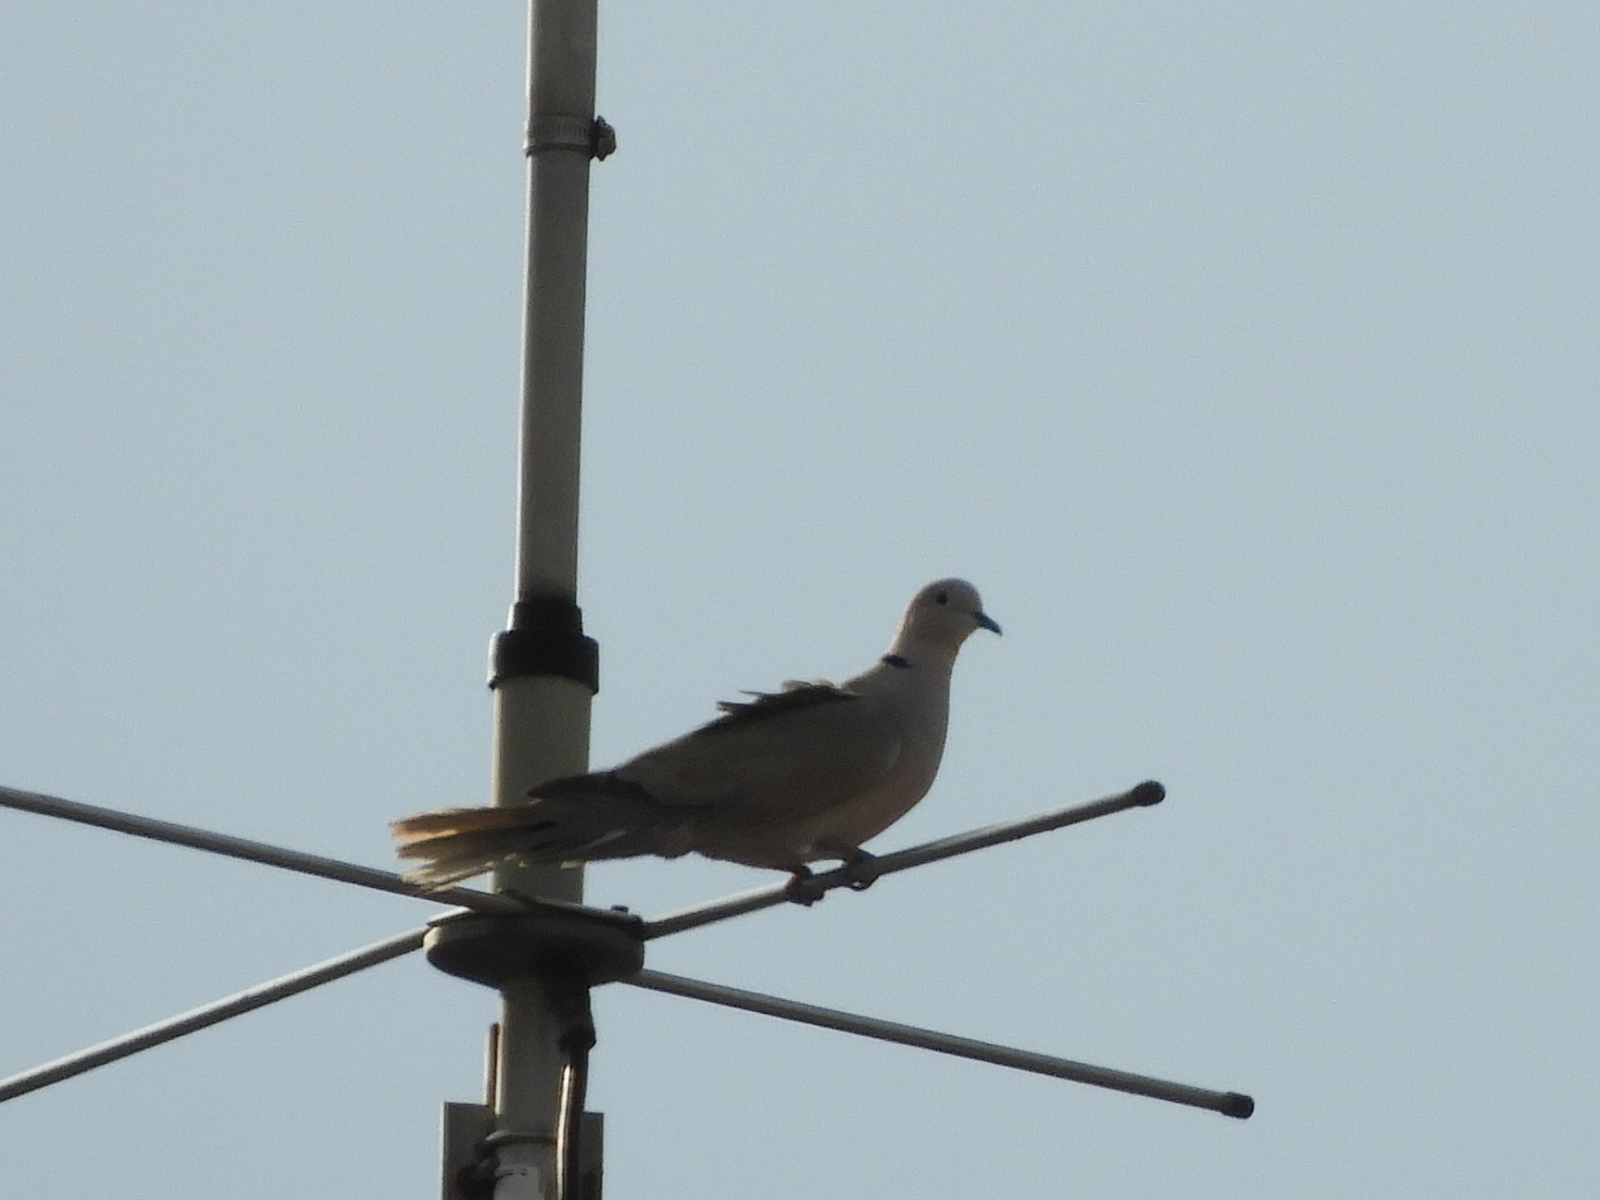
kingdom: Animalia
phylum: Chordata
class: Aves
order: Columbiformes
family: Columbidae
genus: Streptopelia
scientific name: Streptopelia decaocto
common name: Eurasian collared dove
